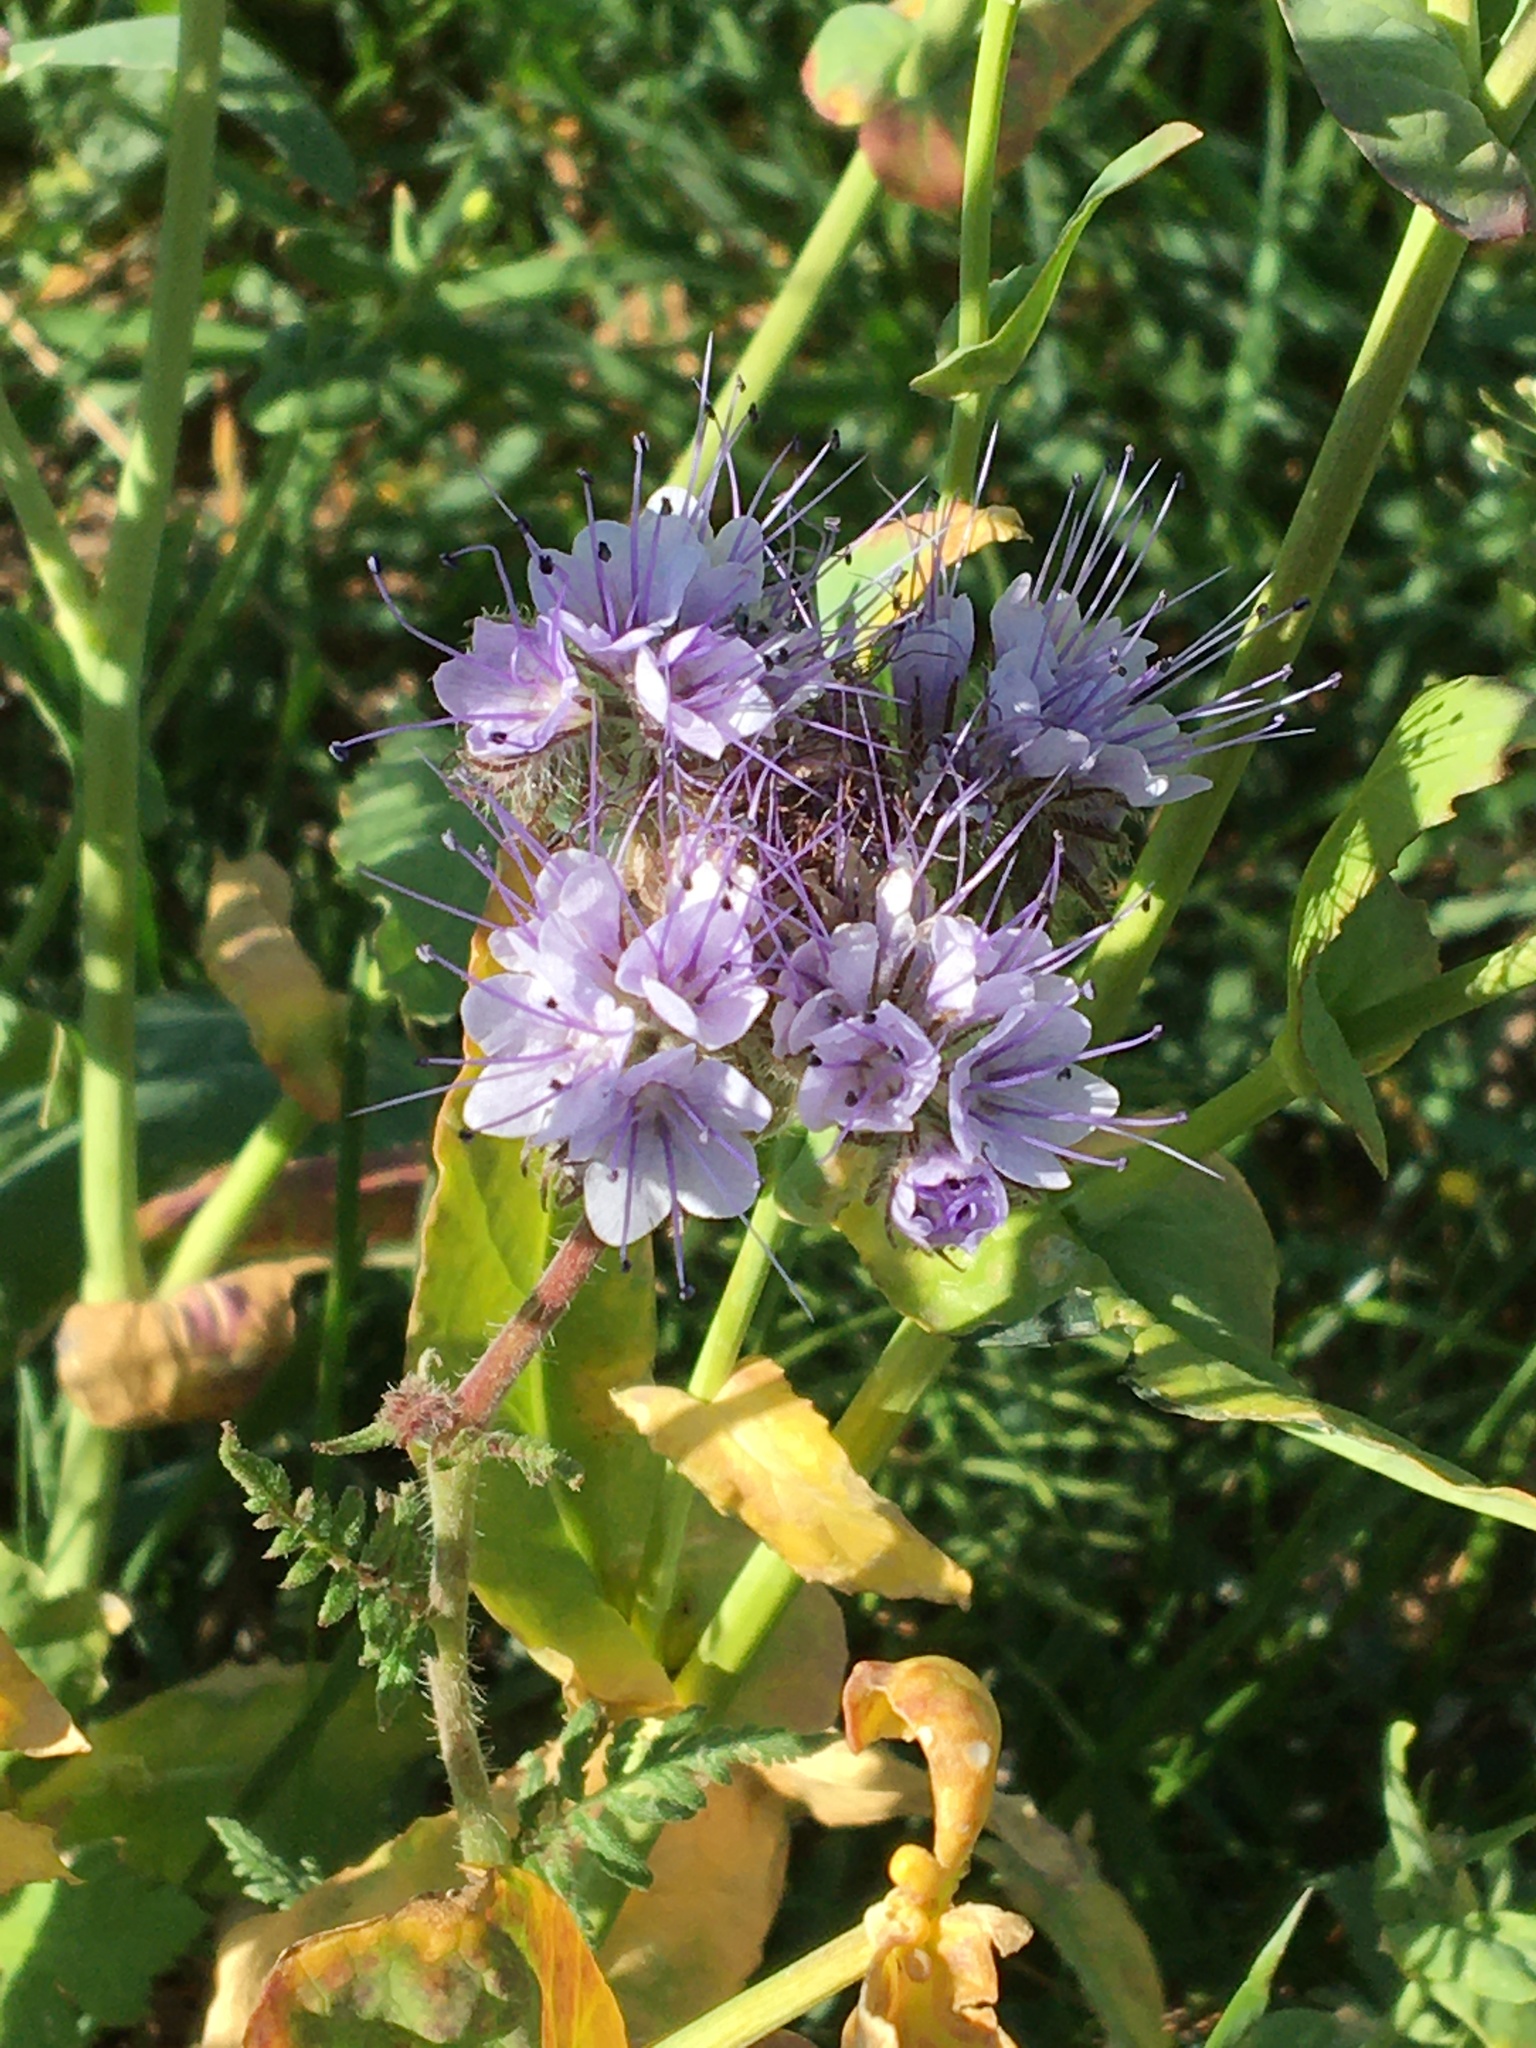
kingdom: Plantae
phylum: Tracheophyta
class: Magnoliopsida
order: Boraginales
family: Hydrophyllaceae
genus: Phacelia
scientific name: Phacelia tanacetifolia
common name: Phacelia
